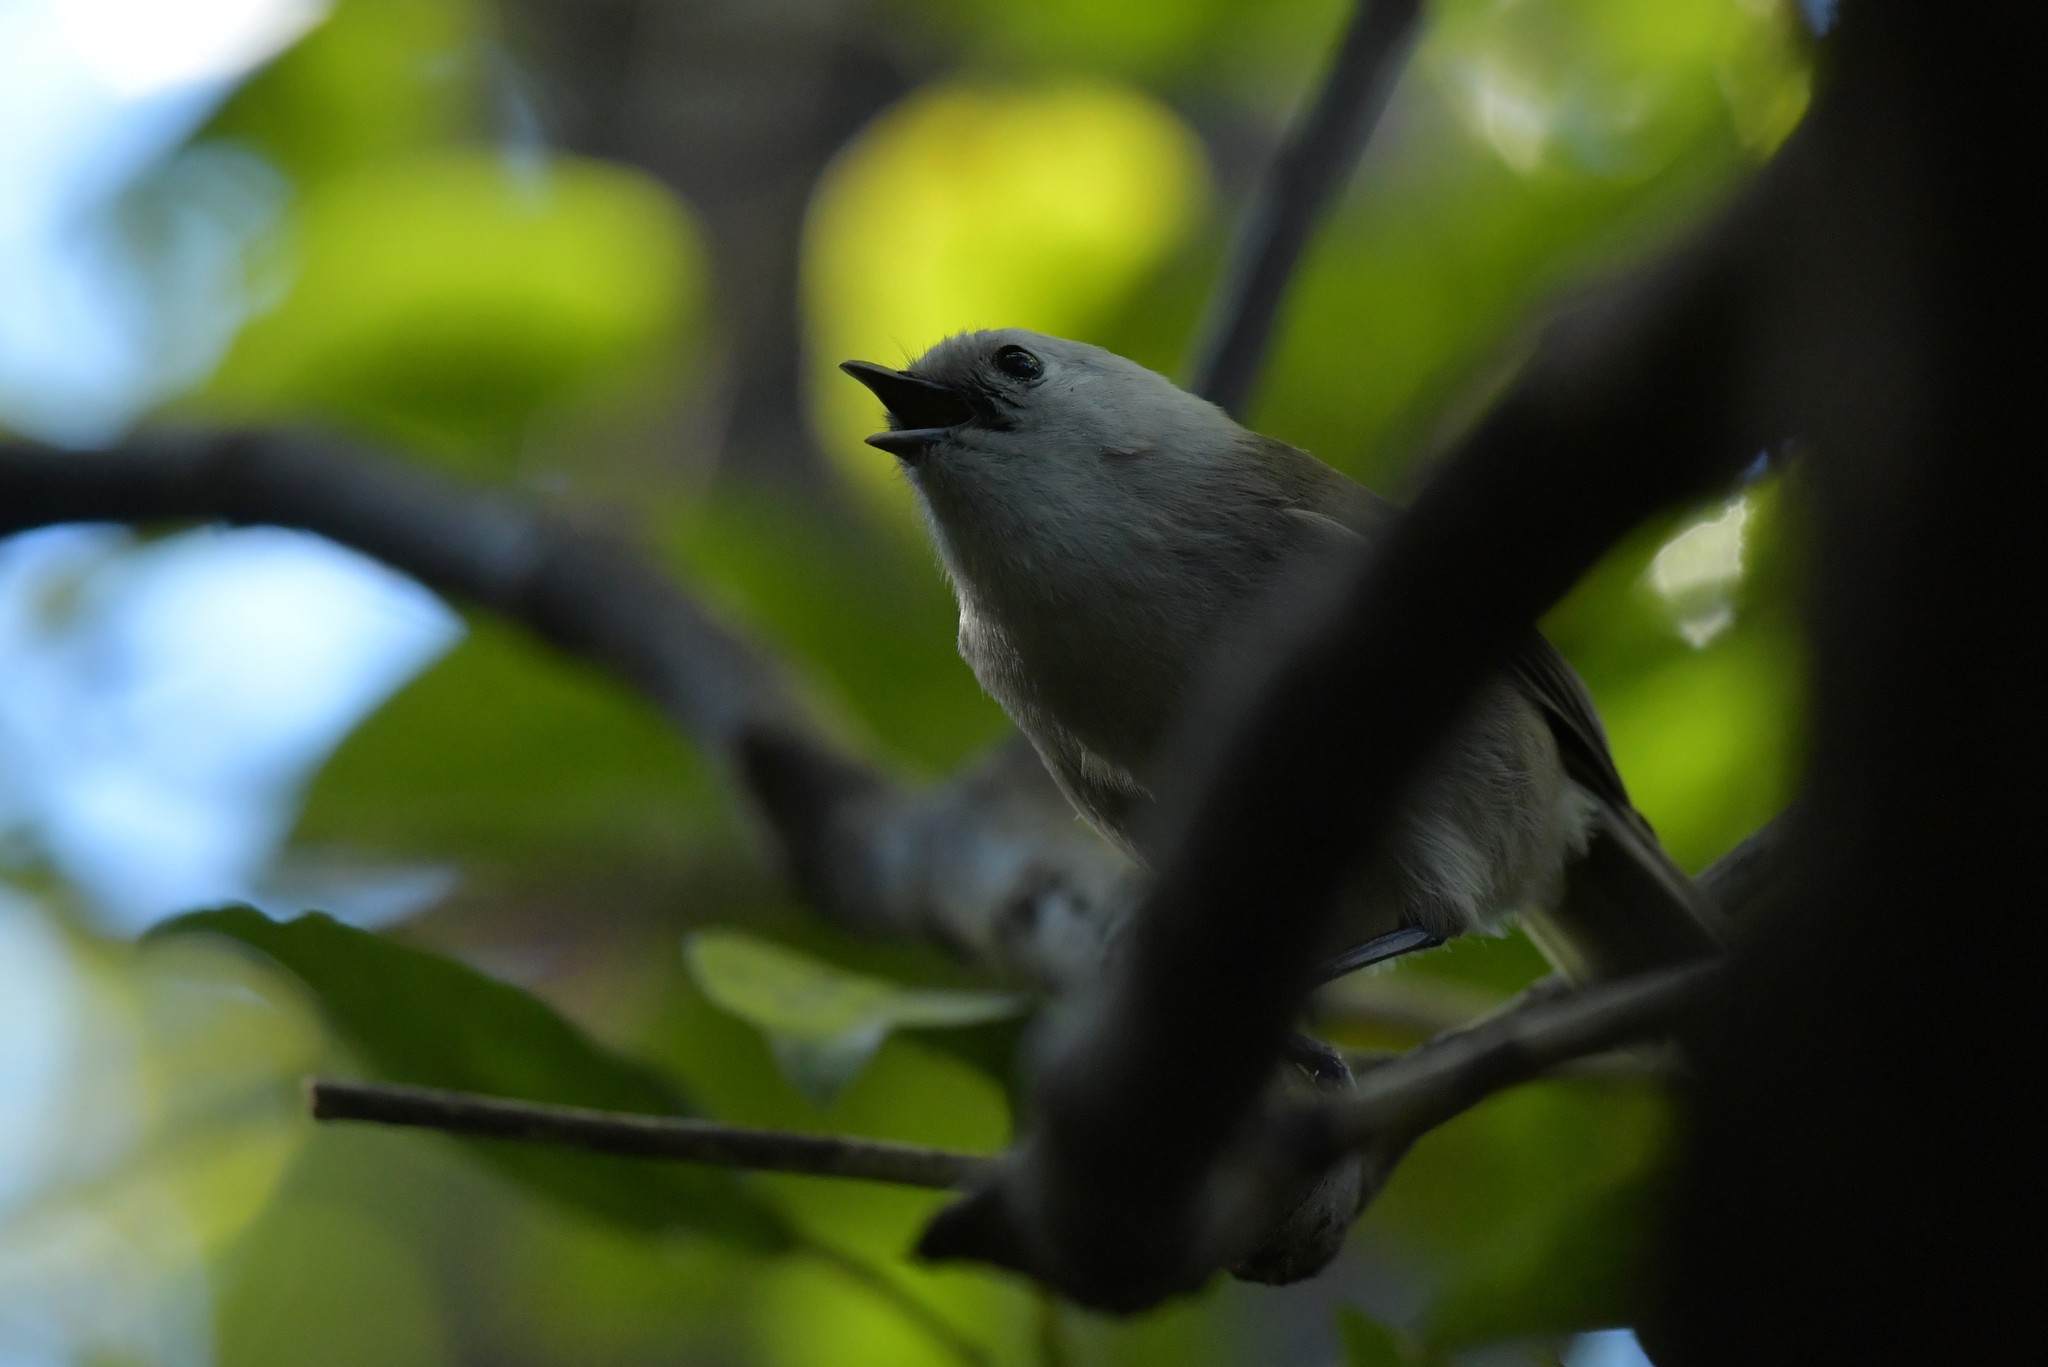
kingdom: Animalia
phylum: Chordata
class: Aves
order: Passeriformes
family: Acanthizidae
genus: Mohoua
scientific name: Mohoua albicilla
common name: Whitehead
